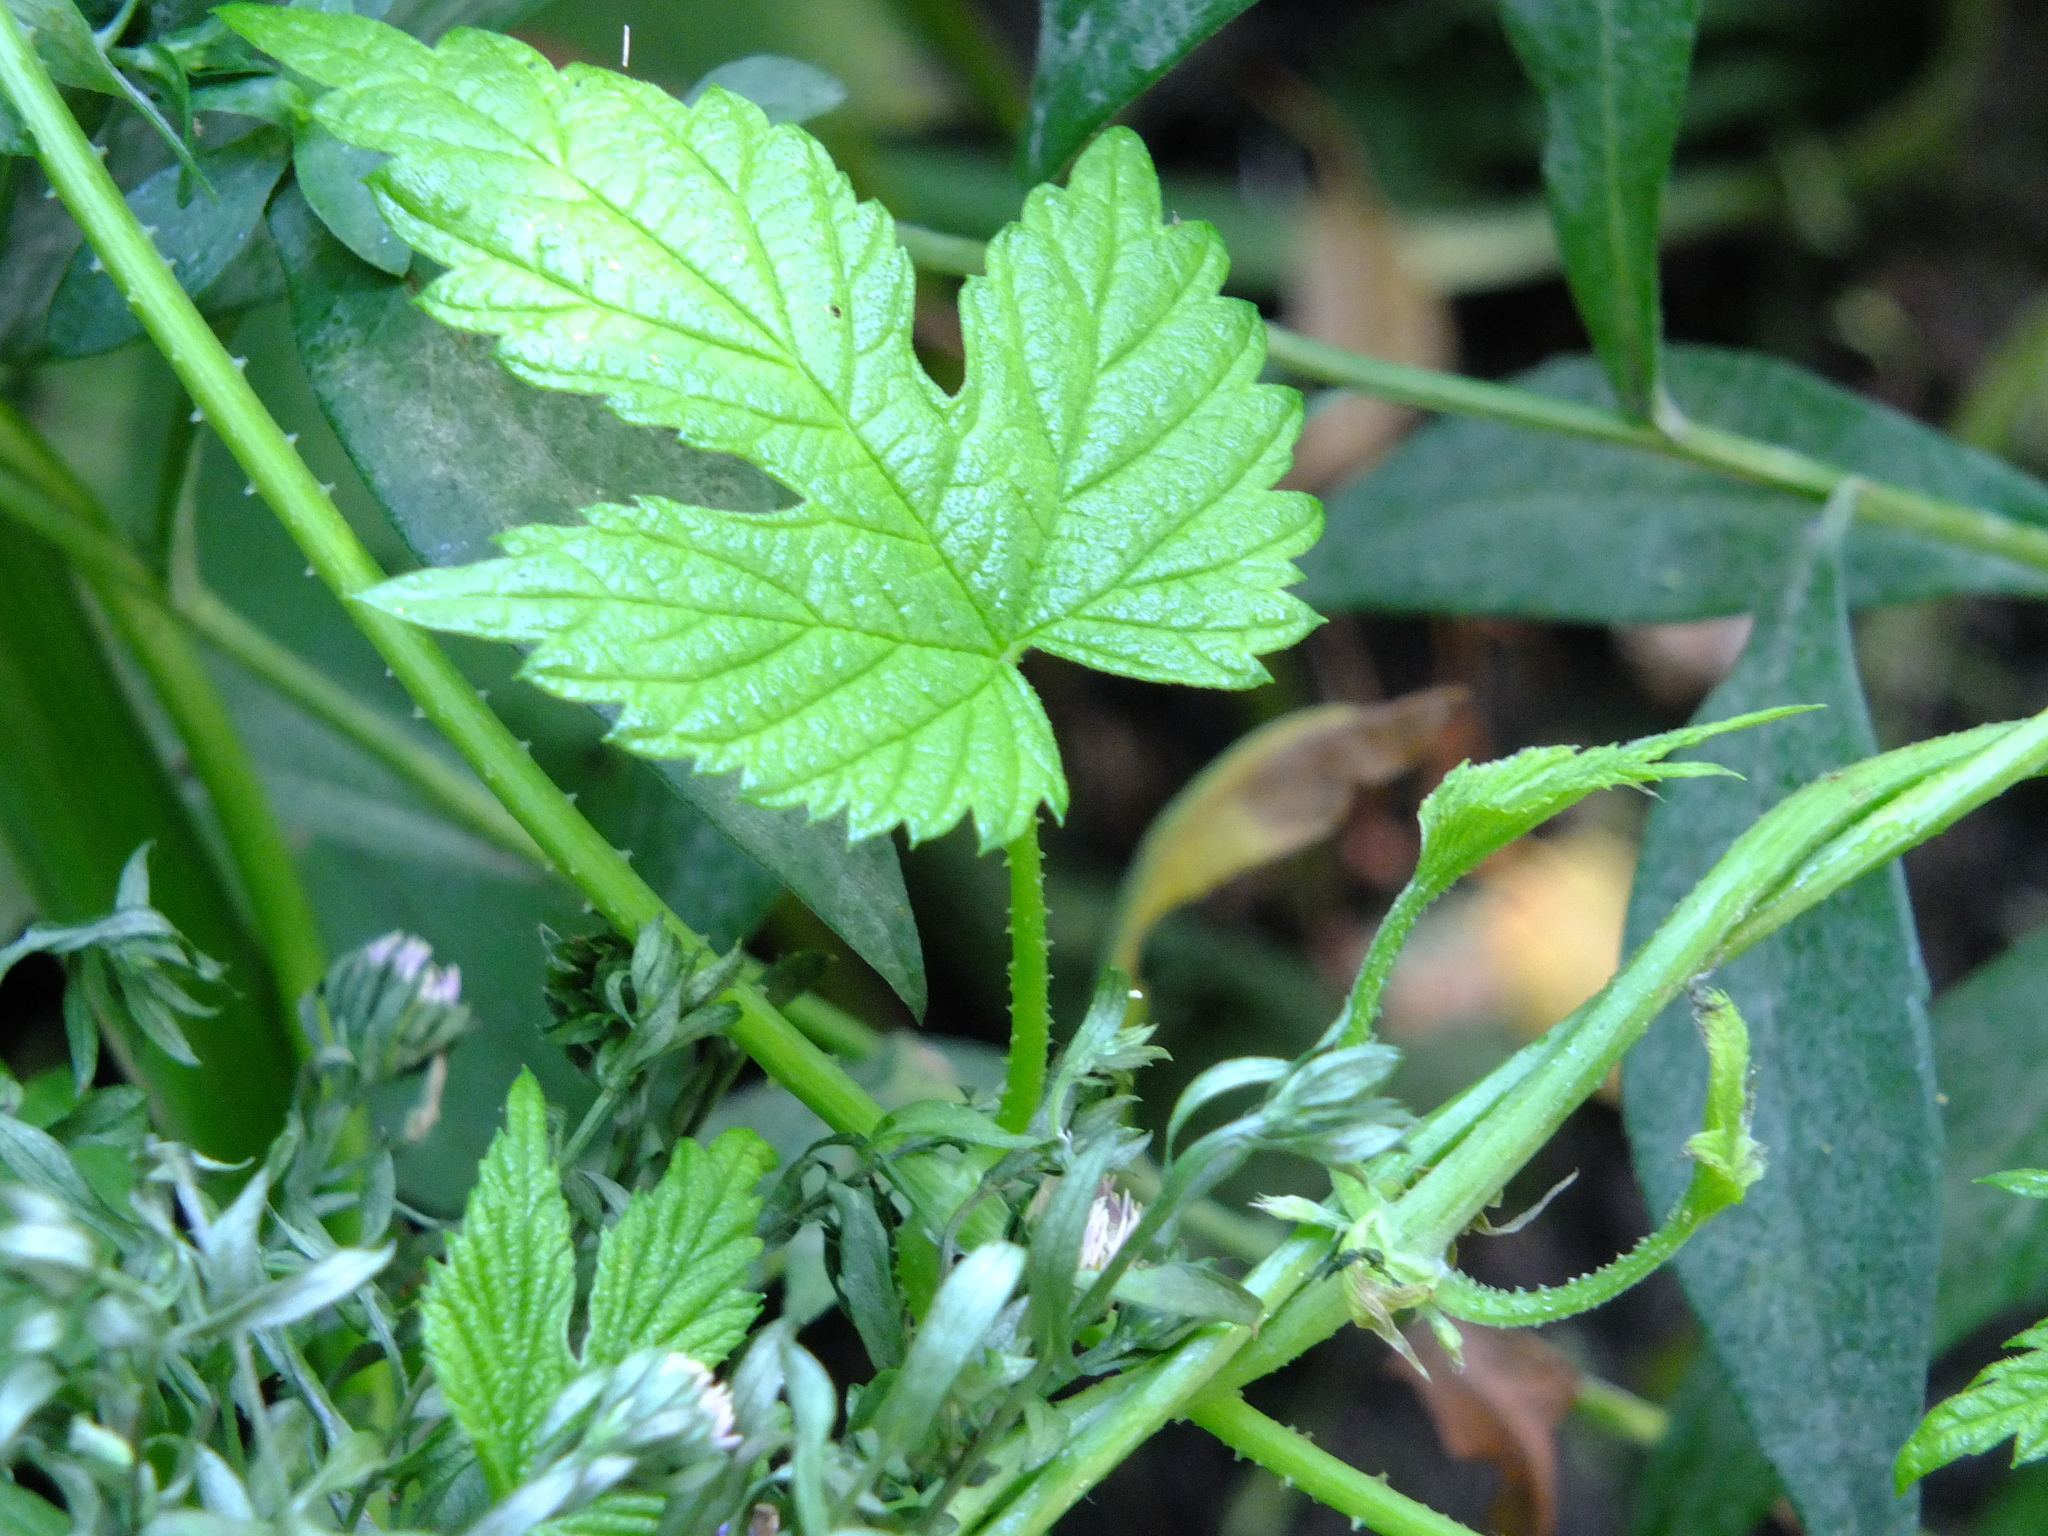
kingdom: Plantae
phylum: Tracheophyta
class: Magnoliopsida
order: Rosales
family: Cannabaceae
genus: Humulus
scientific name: Humulus lupulus
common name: Hop
